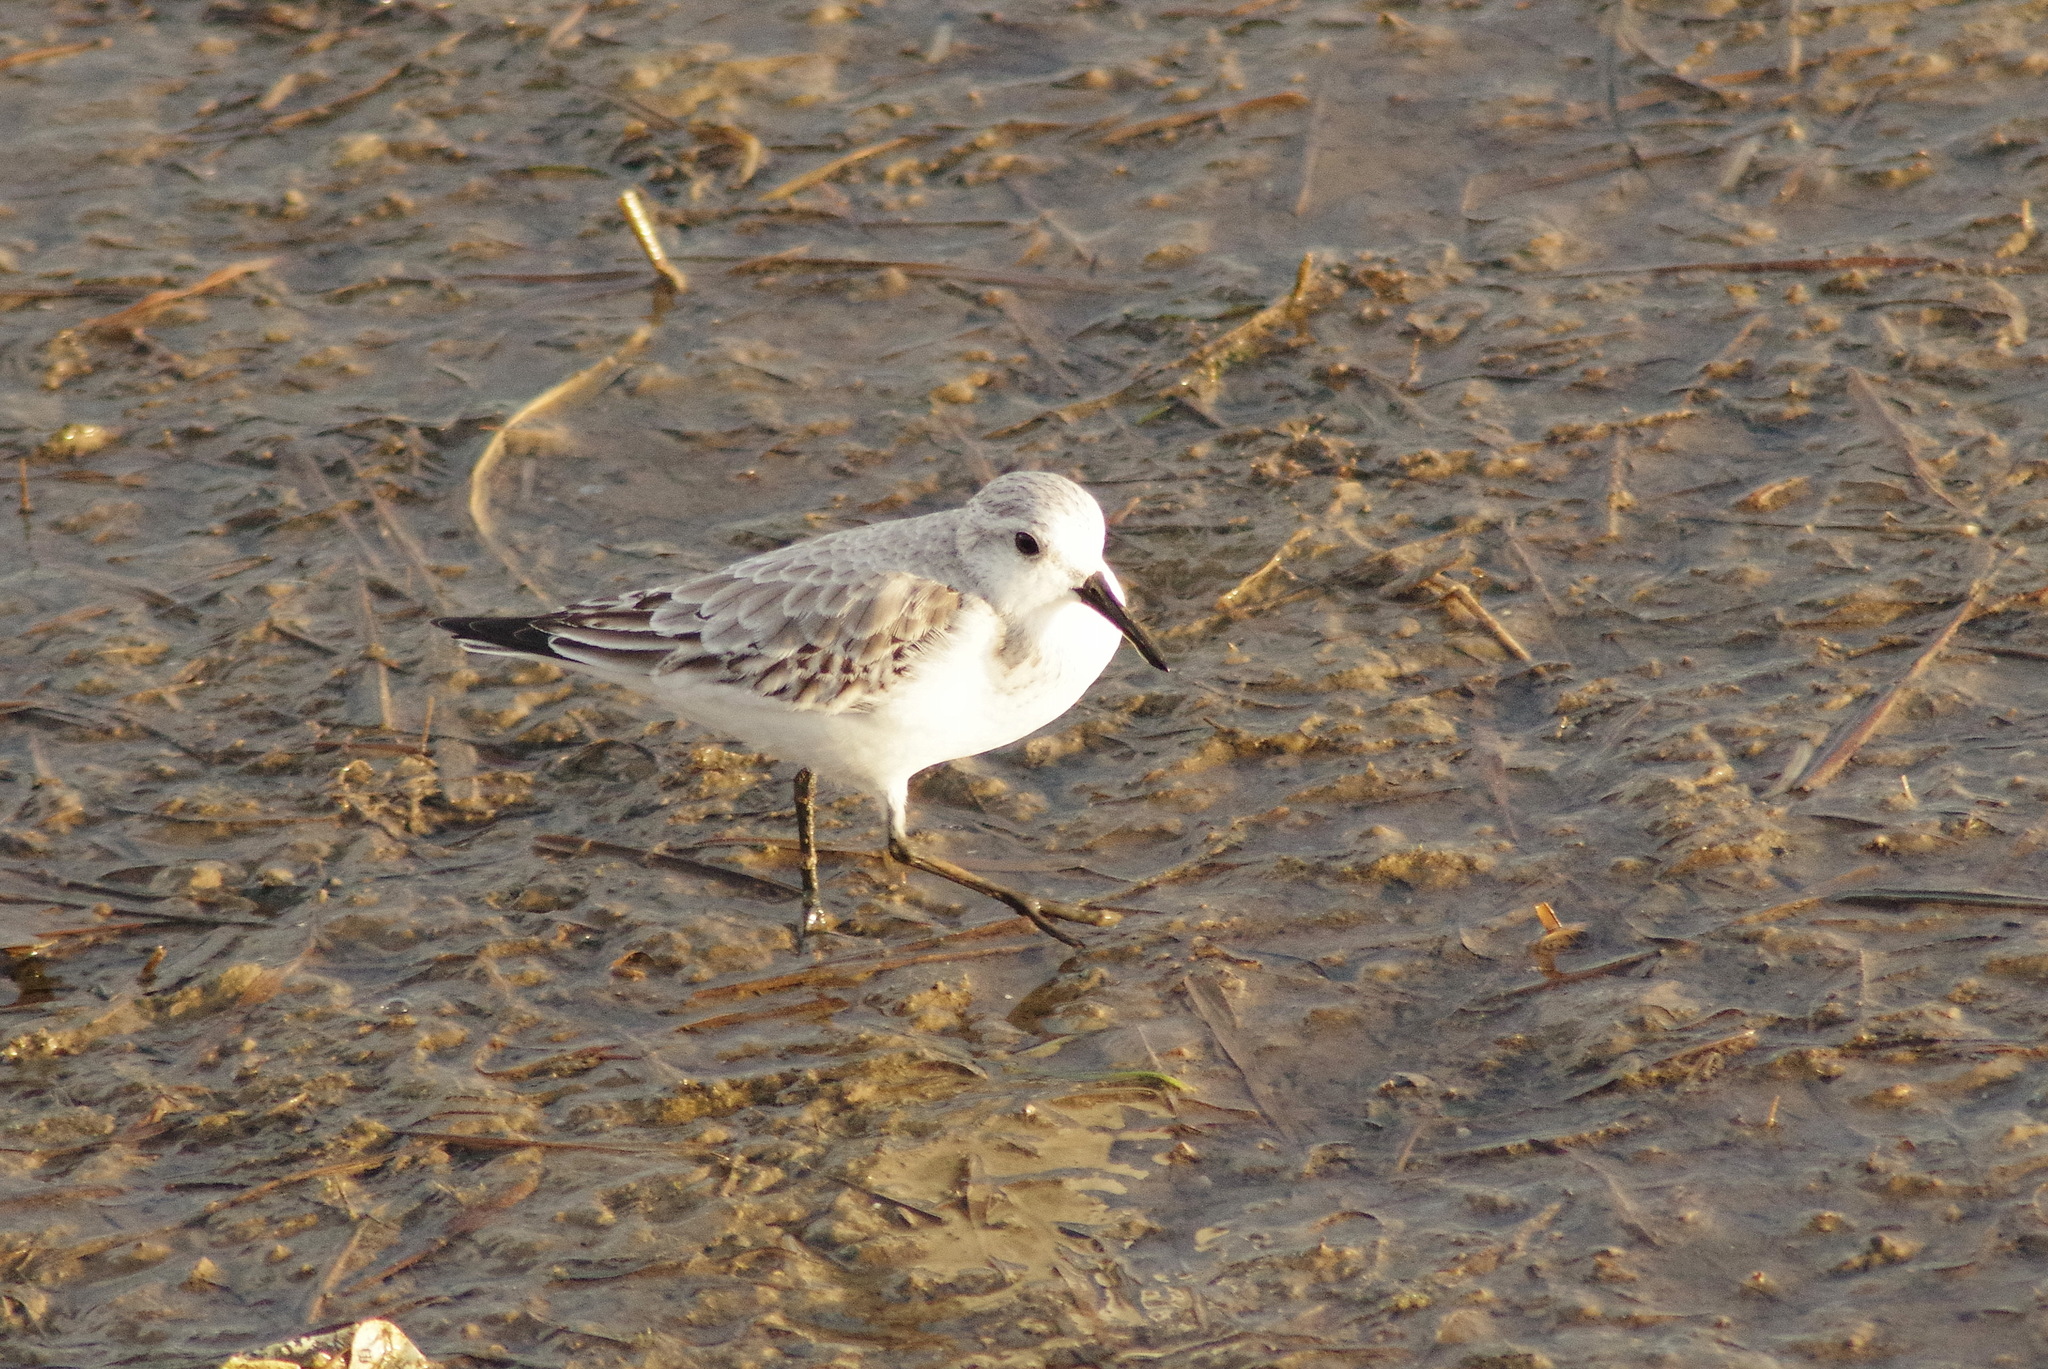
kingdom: Animalia
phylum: Chordata
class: Aves
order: Charadriiformes
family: Scolopacidae
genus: Calidris
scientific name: Calidris alba
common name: Sanderling
